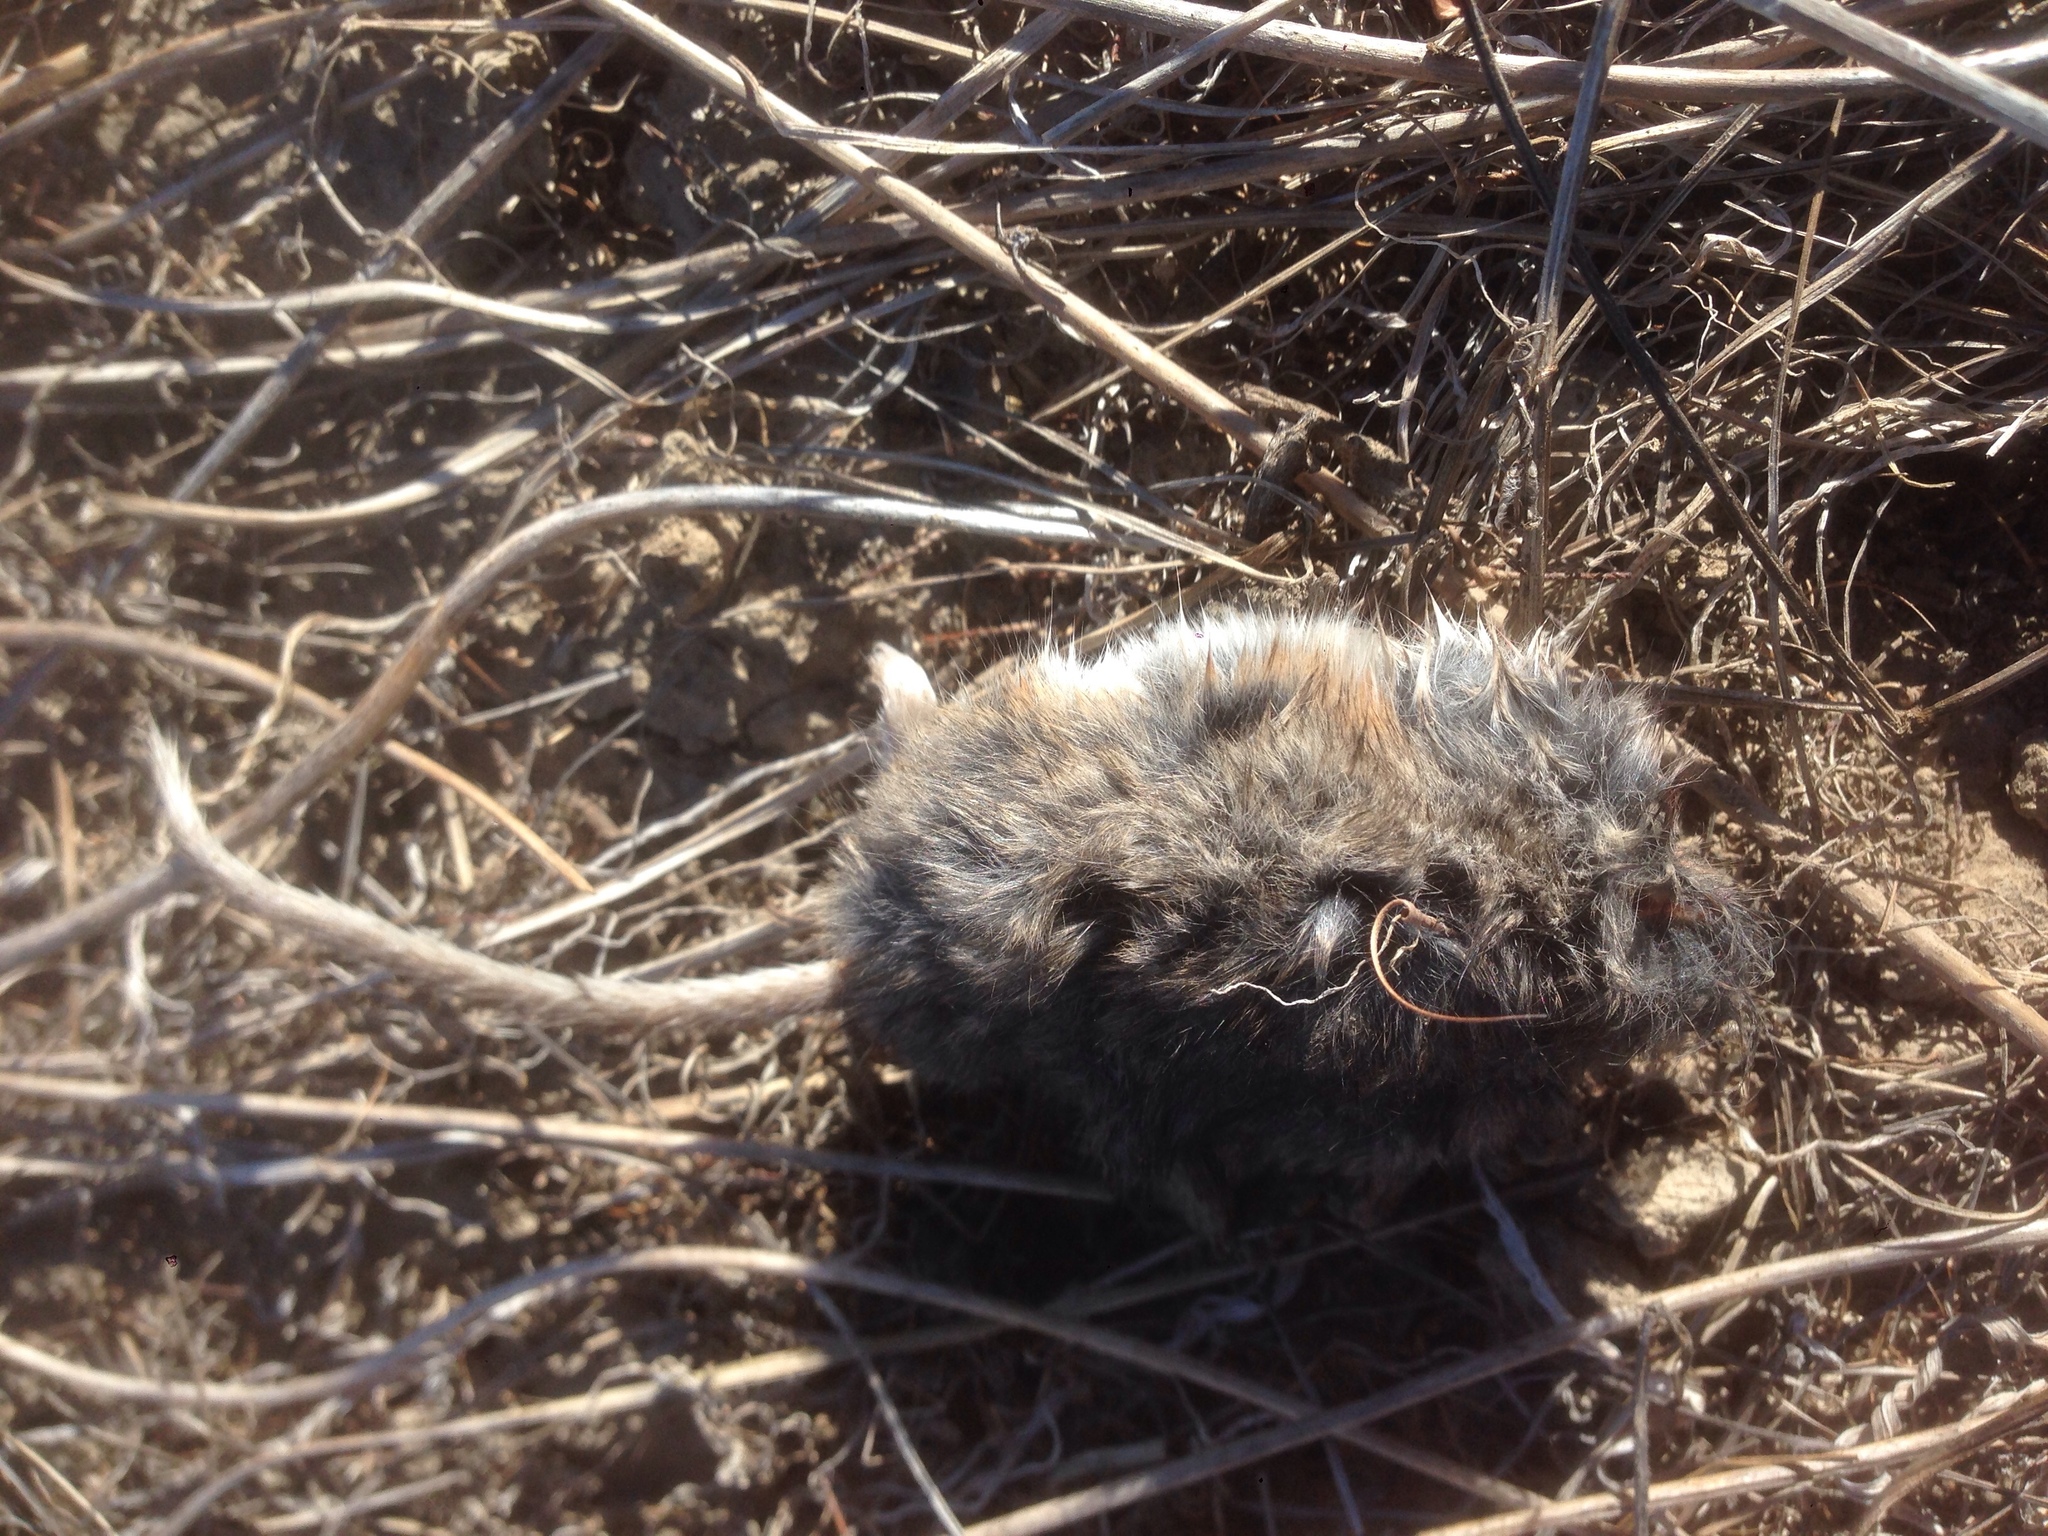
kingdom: Animalia
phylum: Chordata
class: Mammalia
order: Rodentia
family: Cricetidae
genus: Peromyscus
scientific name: Peromyscus maniculatus
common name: Deer mouse
